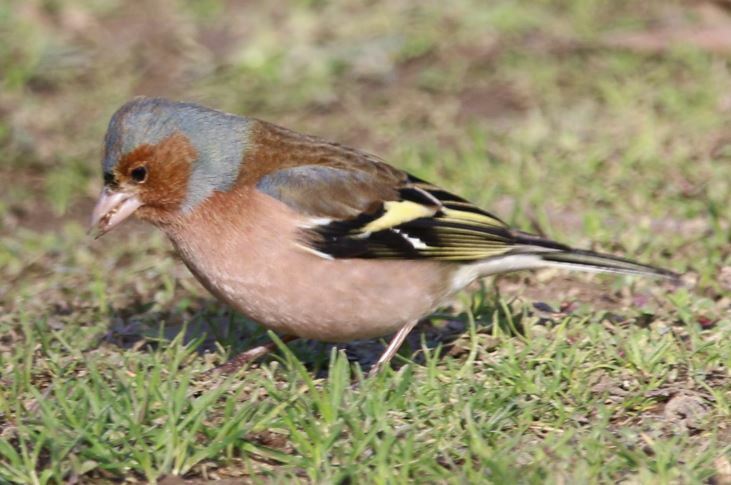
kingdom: Animalia
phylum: Chordata
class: Aves
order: Passeriformes
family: Fringillidae
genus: Fringilla
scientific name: Fringilla coelebs
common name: Common chaffinch
